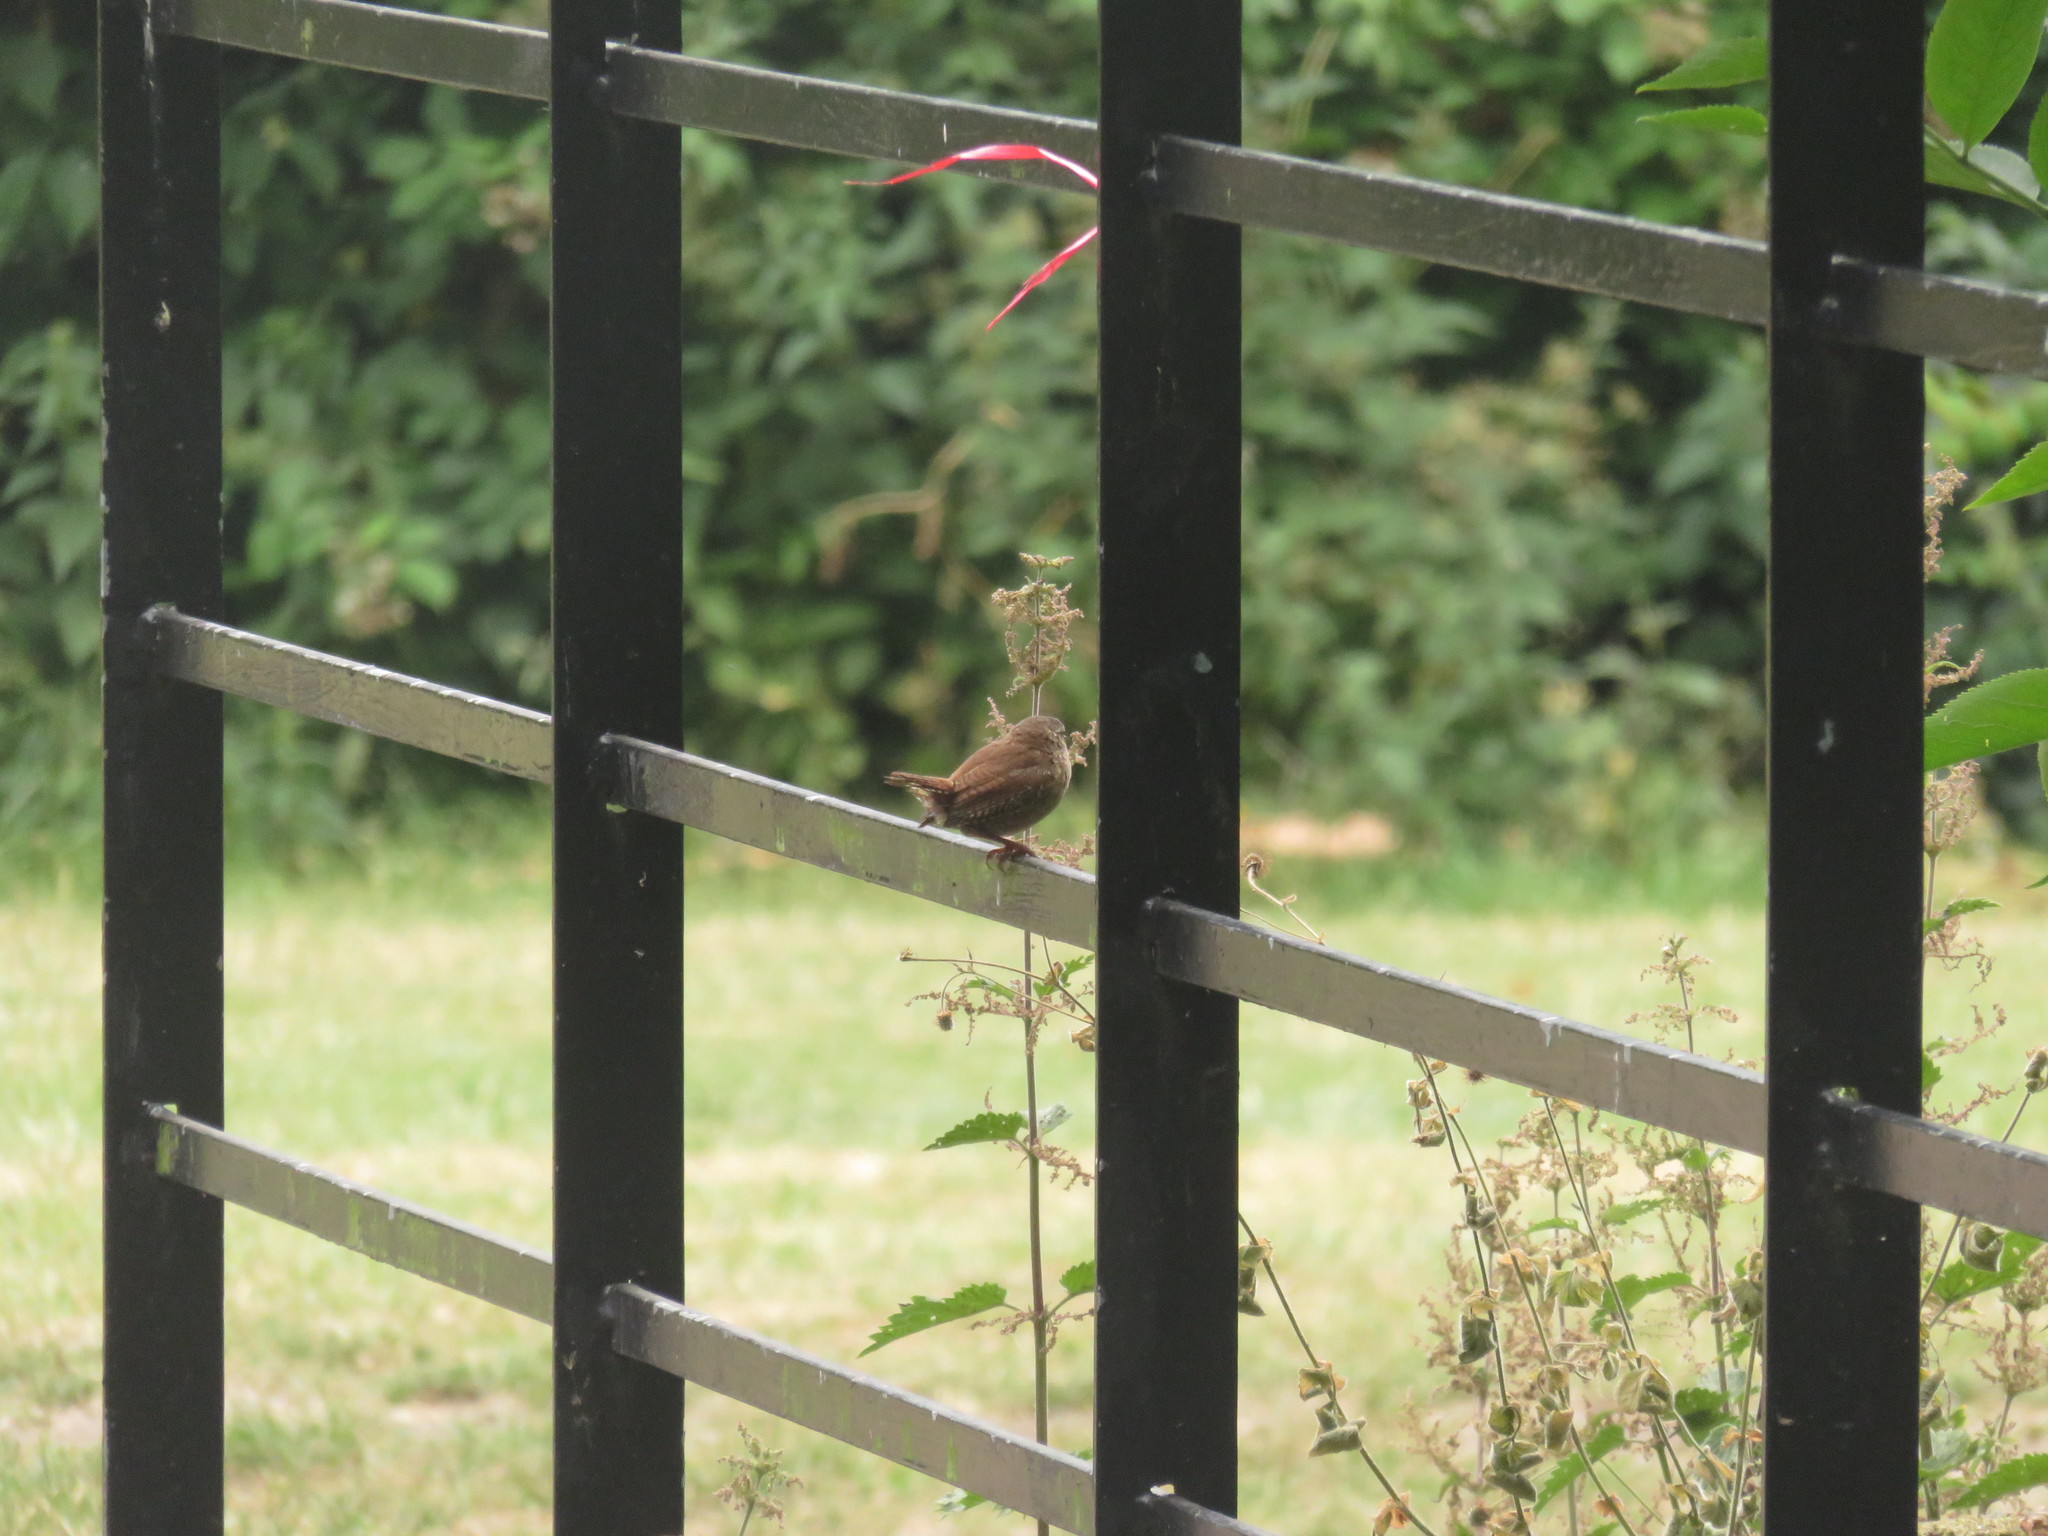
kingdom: Animalia
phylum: Chordata
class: Aves
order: Passeriformes
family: Troglodytidae
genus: Troglodytes
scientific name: Troglodytes troglodytes
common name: Eurasian wren
